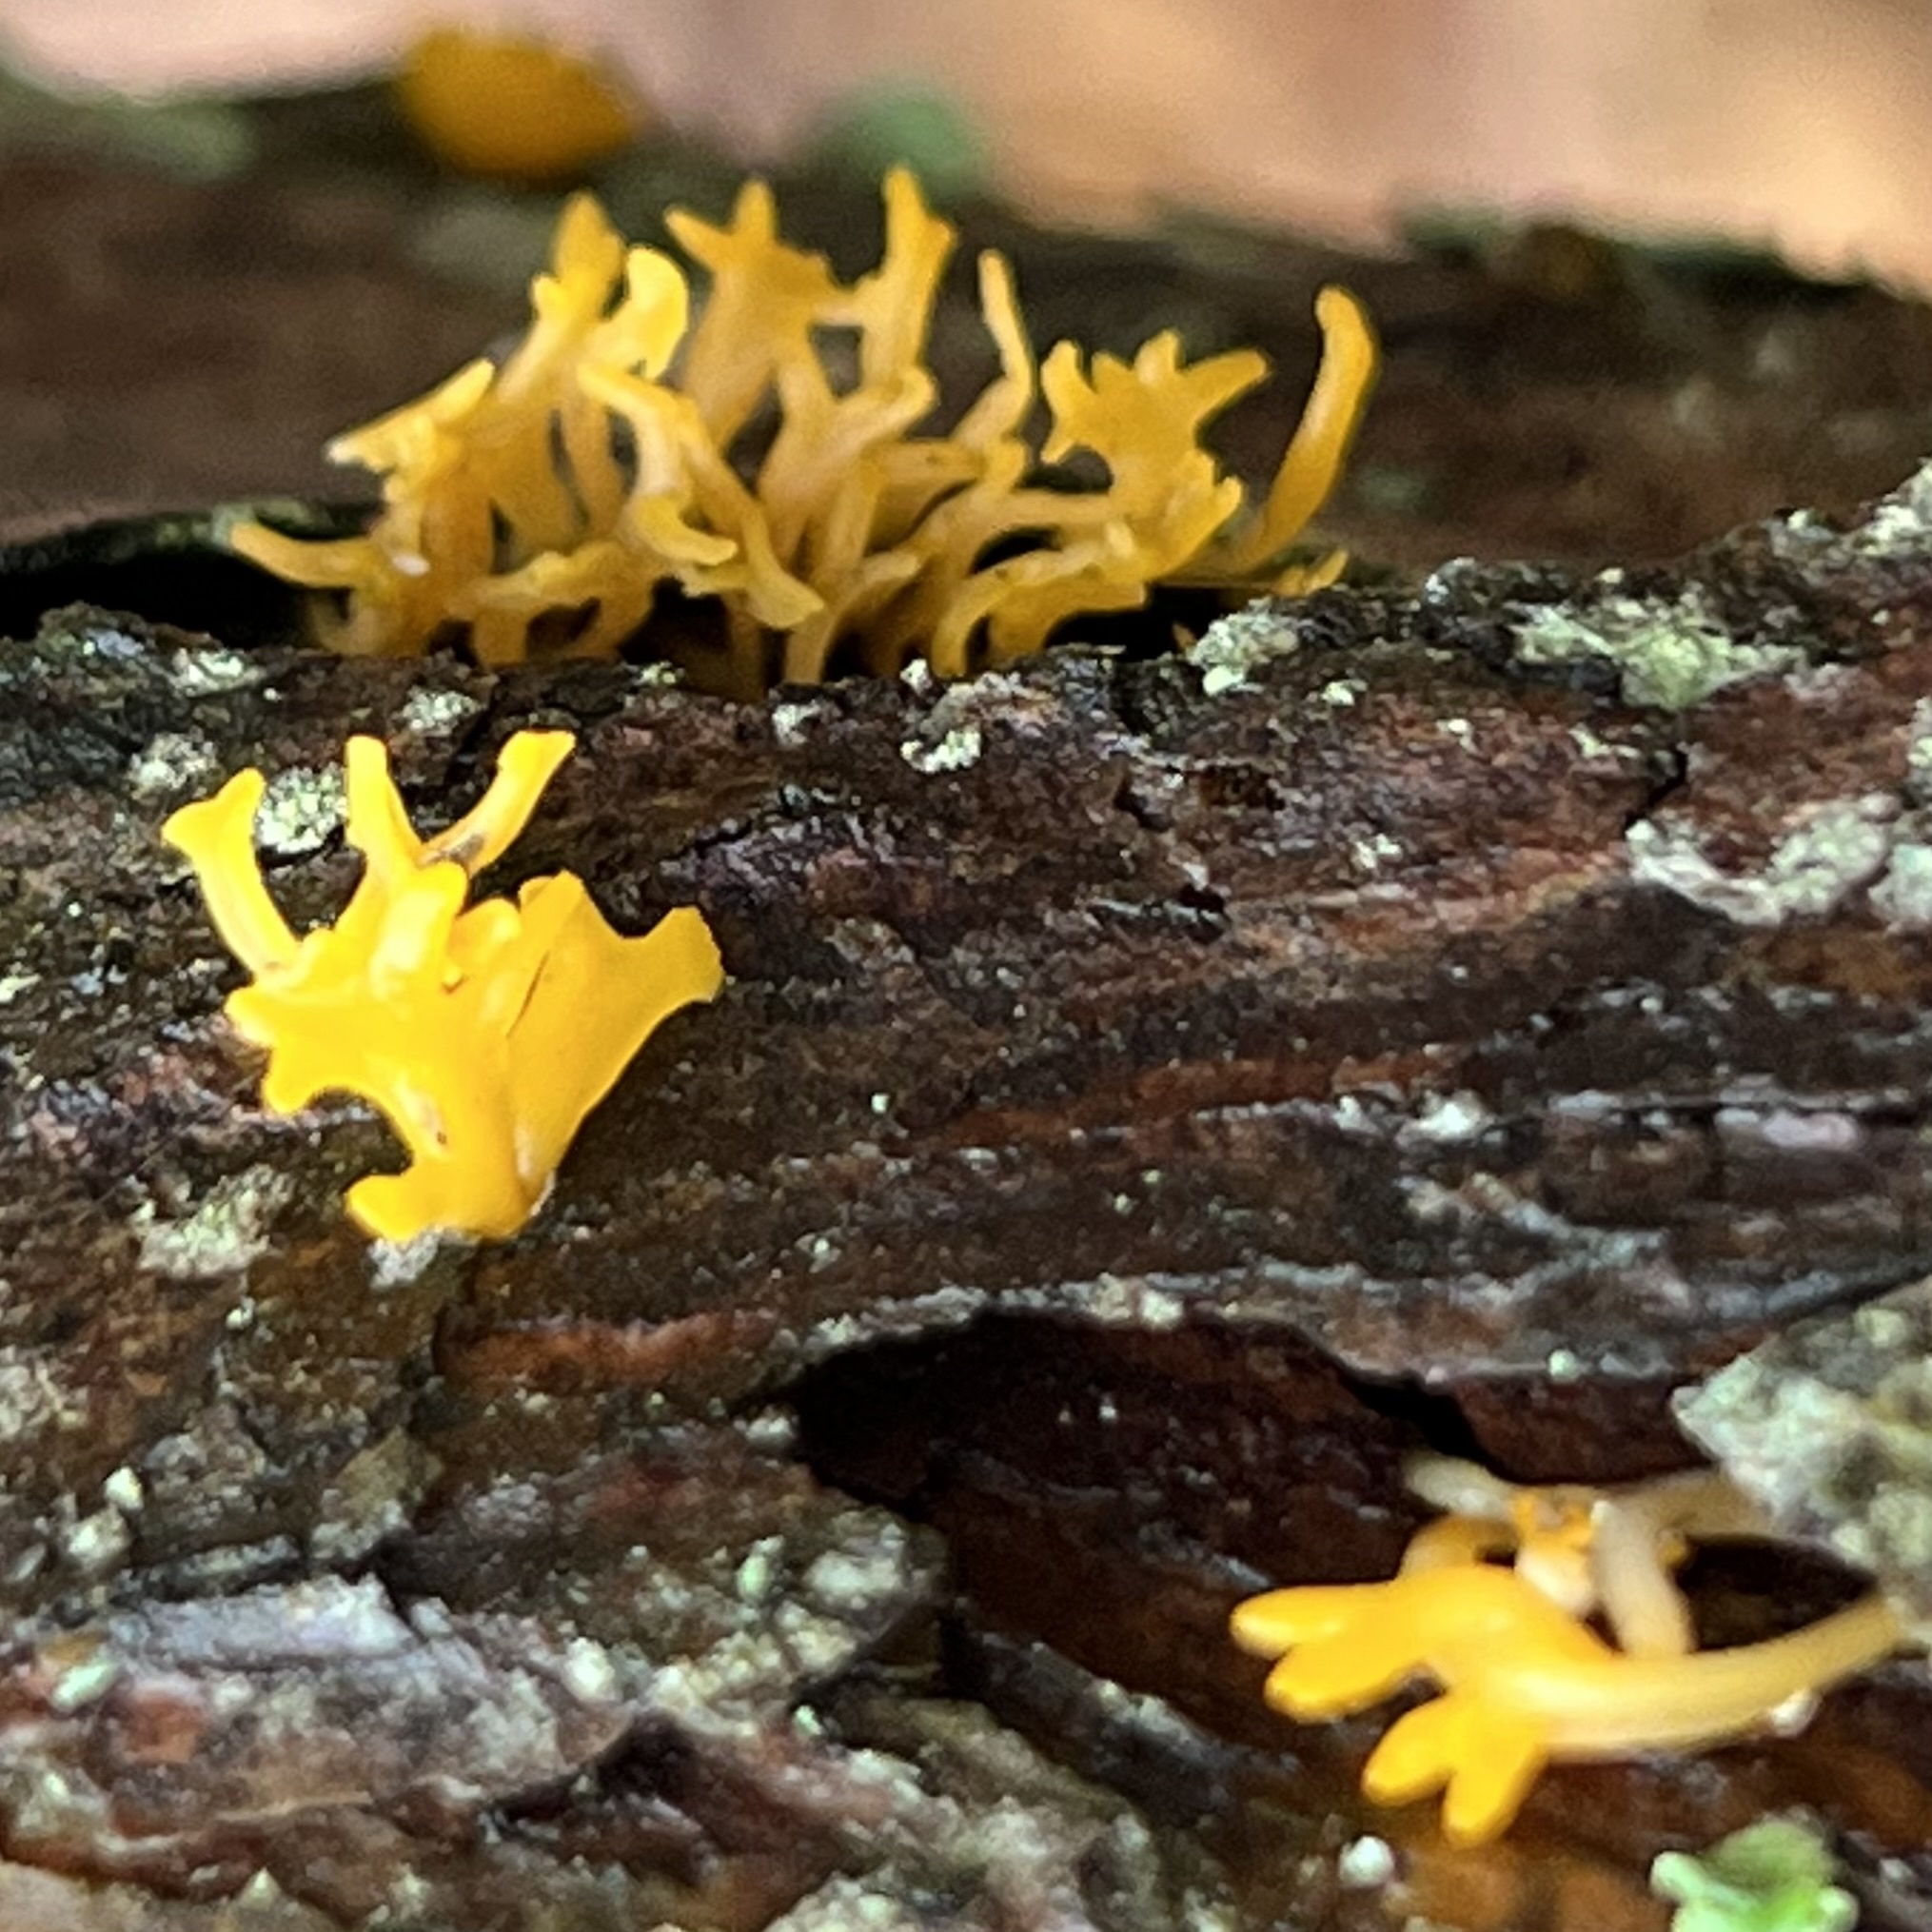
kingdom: Fungi
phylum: Basidiomycota
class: Dacrymycetes
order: Dacrymycetales
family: Dacrymycetaceae
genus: Calocera
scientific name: Calocera cornea
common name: Small stagshorn
